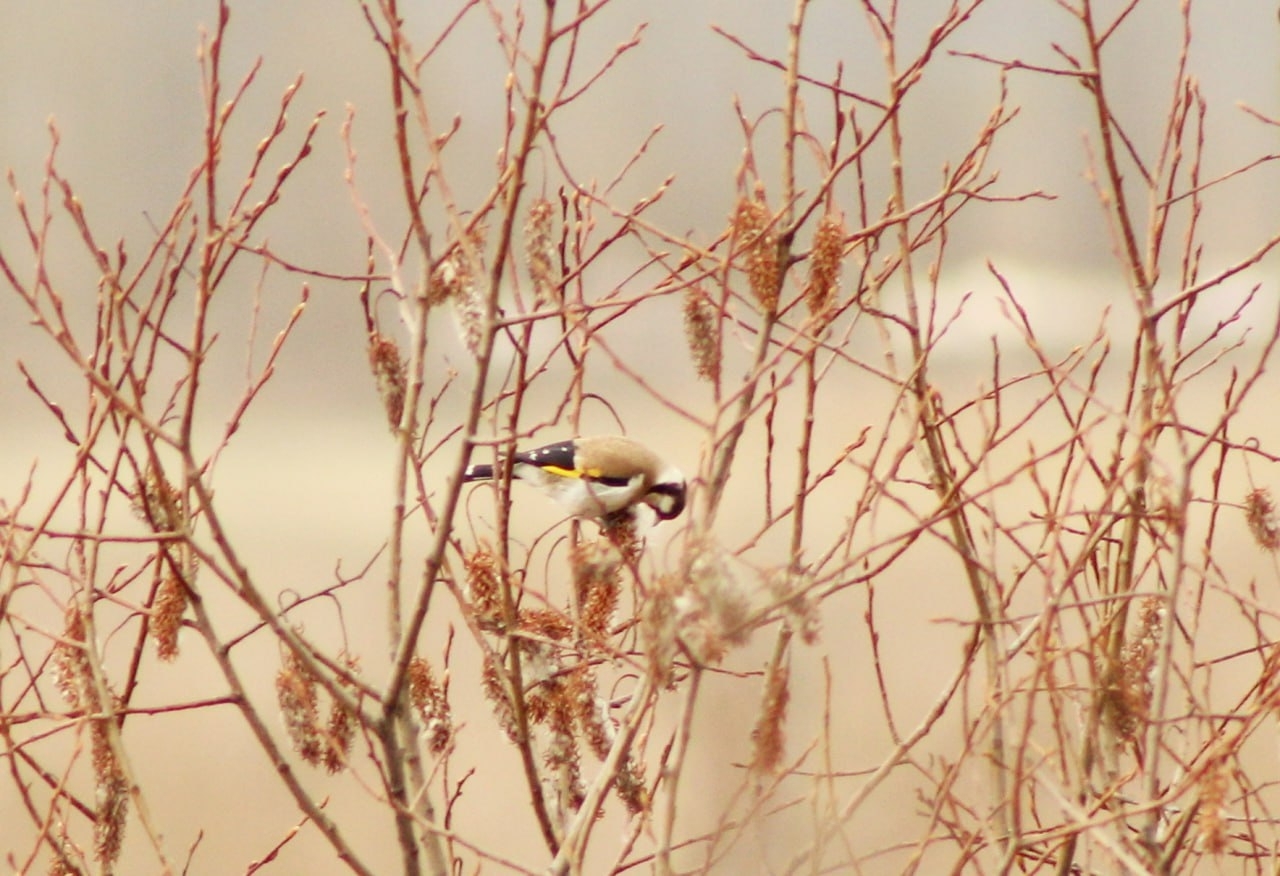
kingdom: Animalia
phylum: Chordata
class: Aves
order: Passeriformes
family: Fringillidae
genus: Carduelis
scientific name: Carduelis carduelis
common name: European goldfinch
